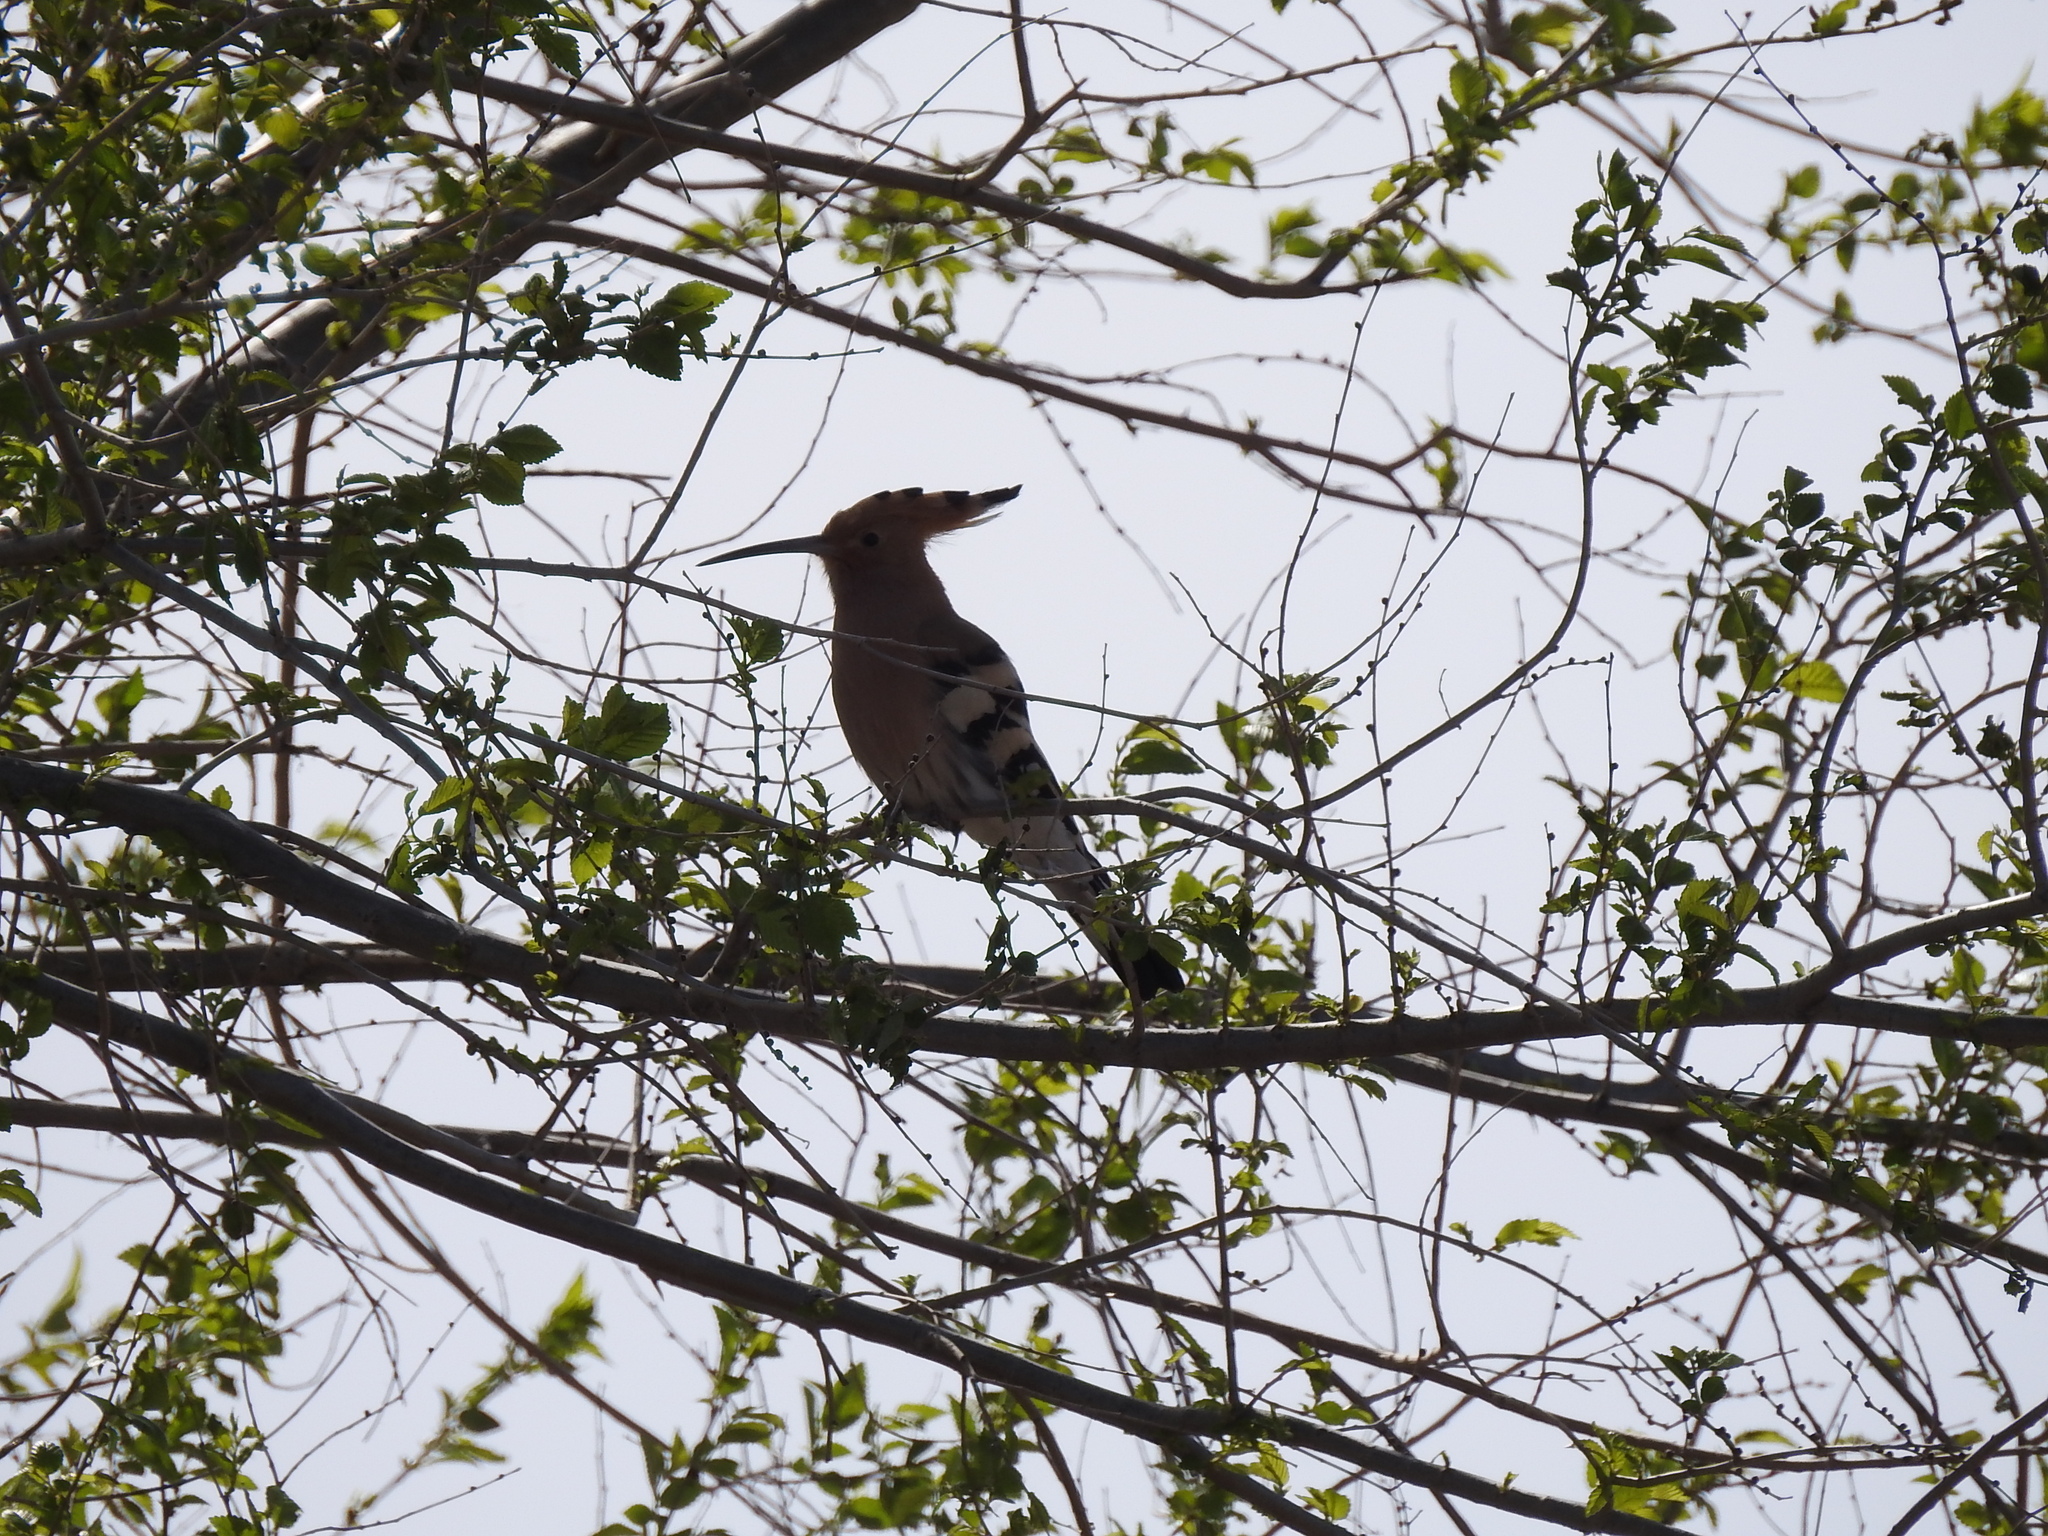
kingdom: Animalia
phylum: Chordata
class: Aves
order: Bucerotiformes
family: Upupidae
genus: Upupa
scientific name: Upupa epops
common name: Eurasian hoopoe
